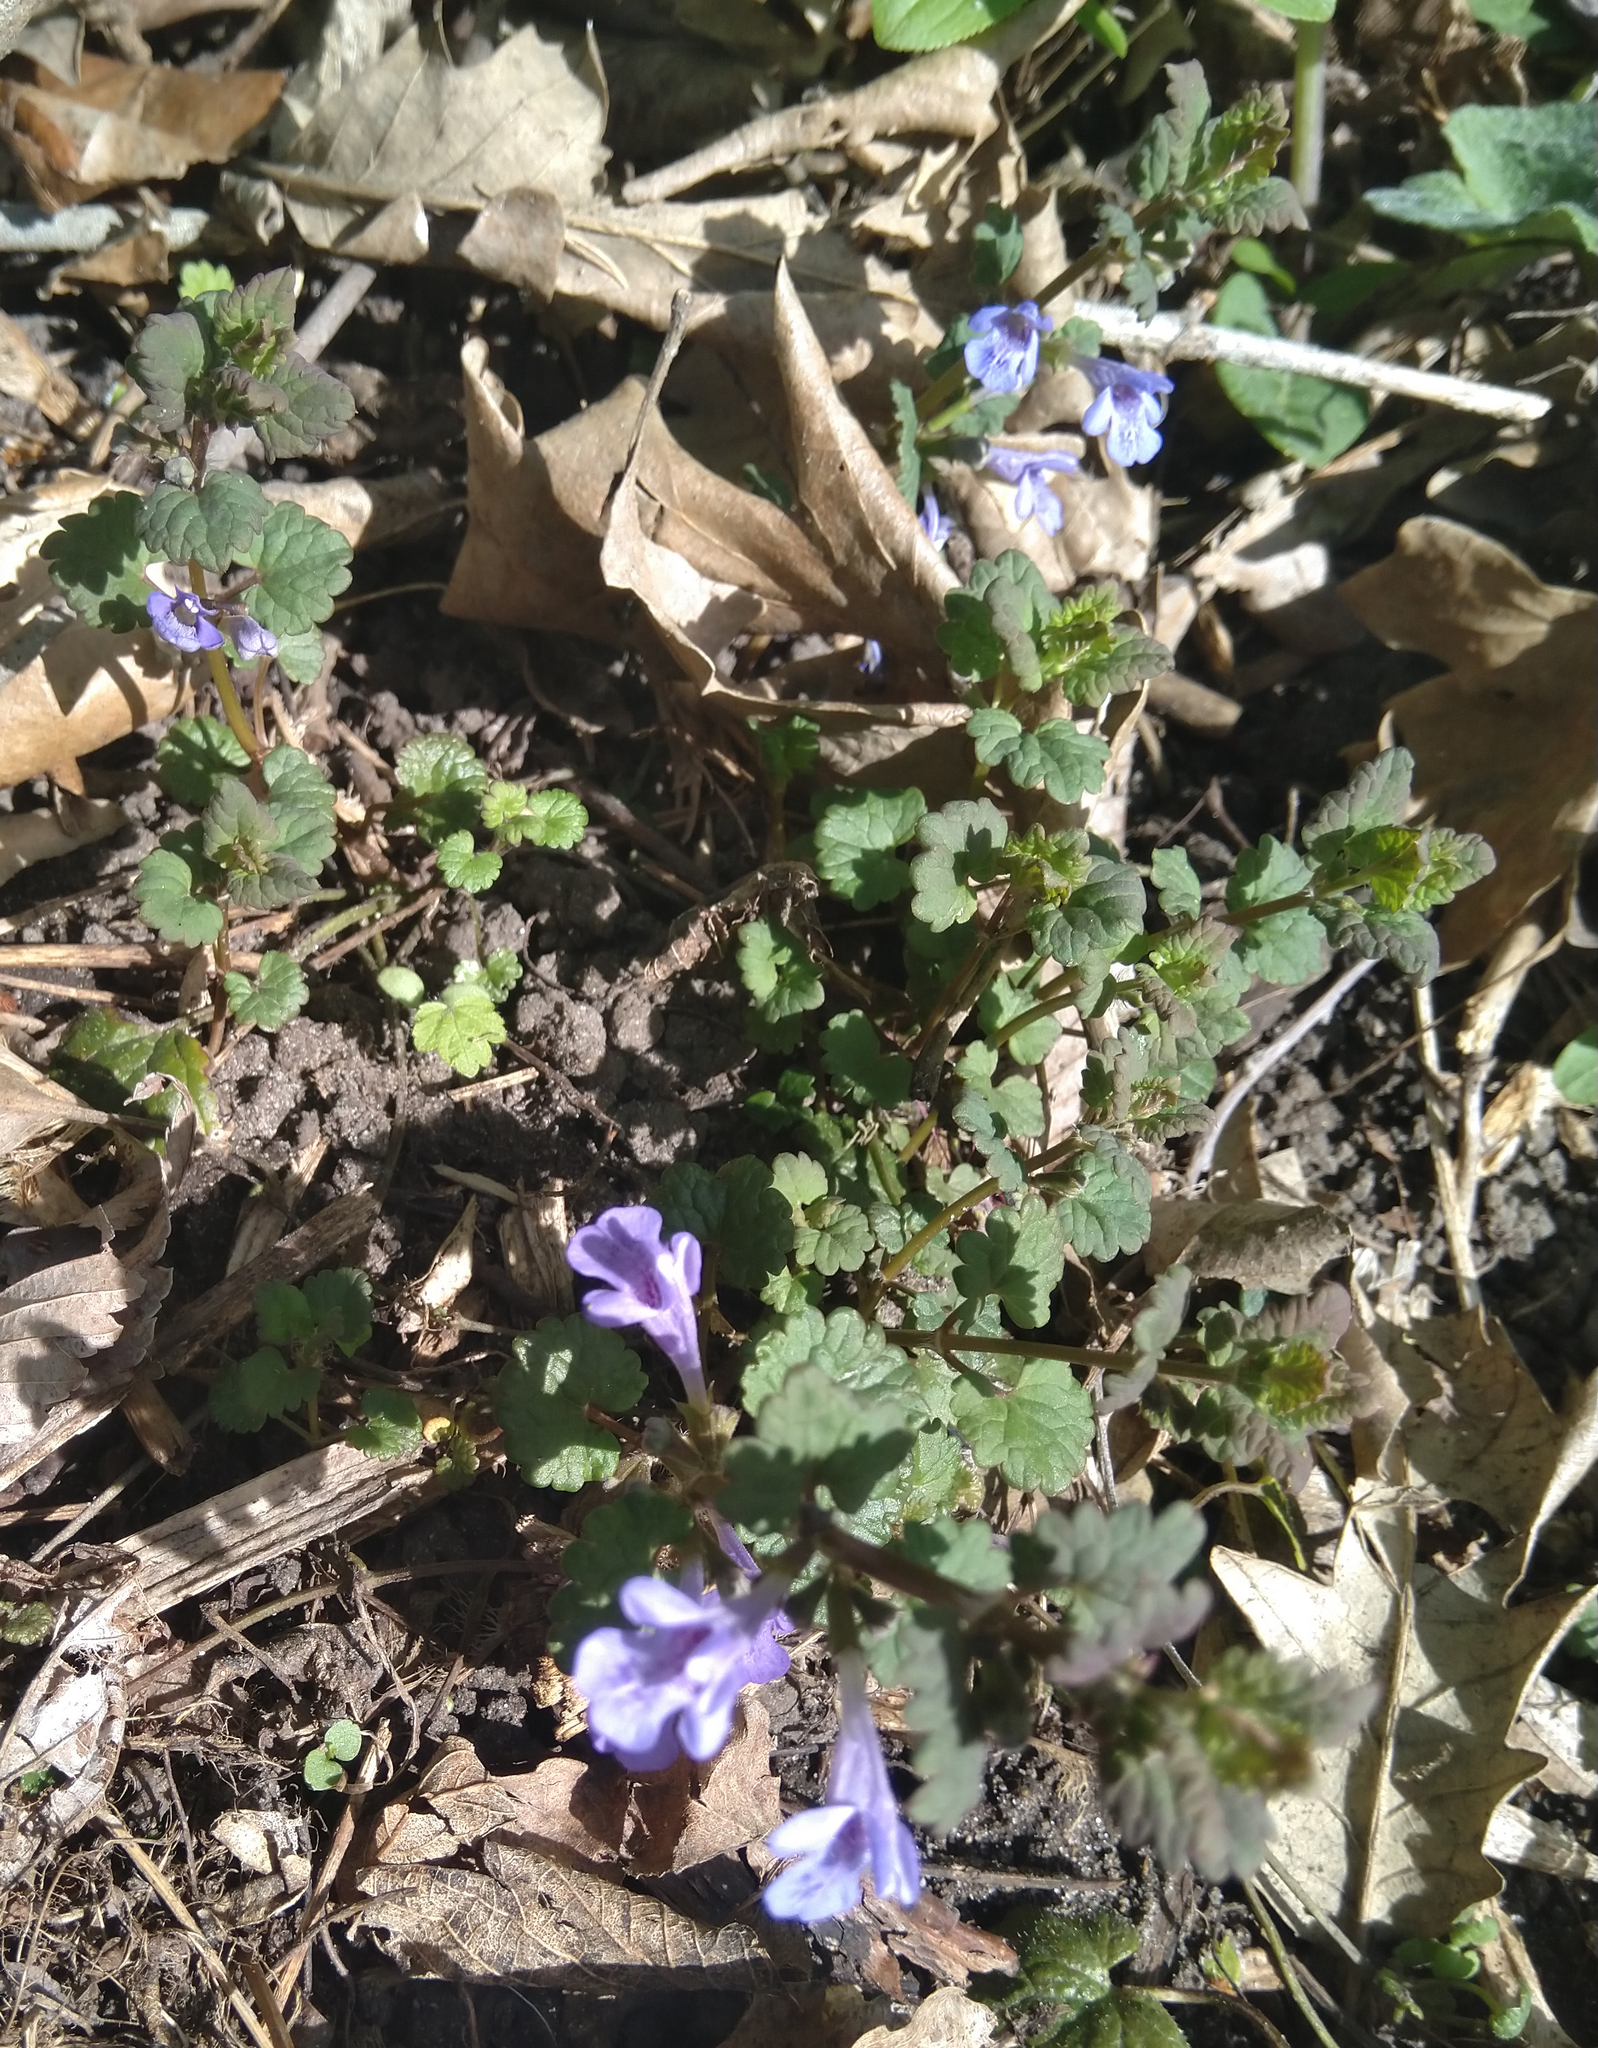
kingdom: Plantae
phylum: Tracheophyta
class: Magnoliopsida
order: Lamiales
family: Lamiaceae
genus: Glechoma
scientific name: Glechoma hederacea
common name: Ground ivy
